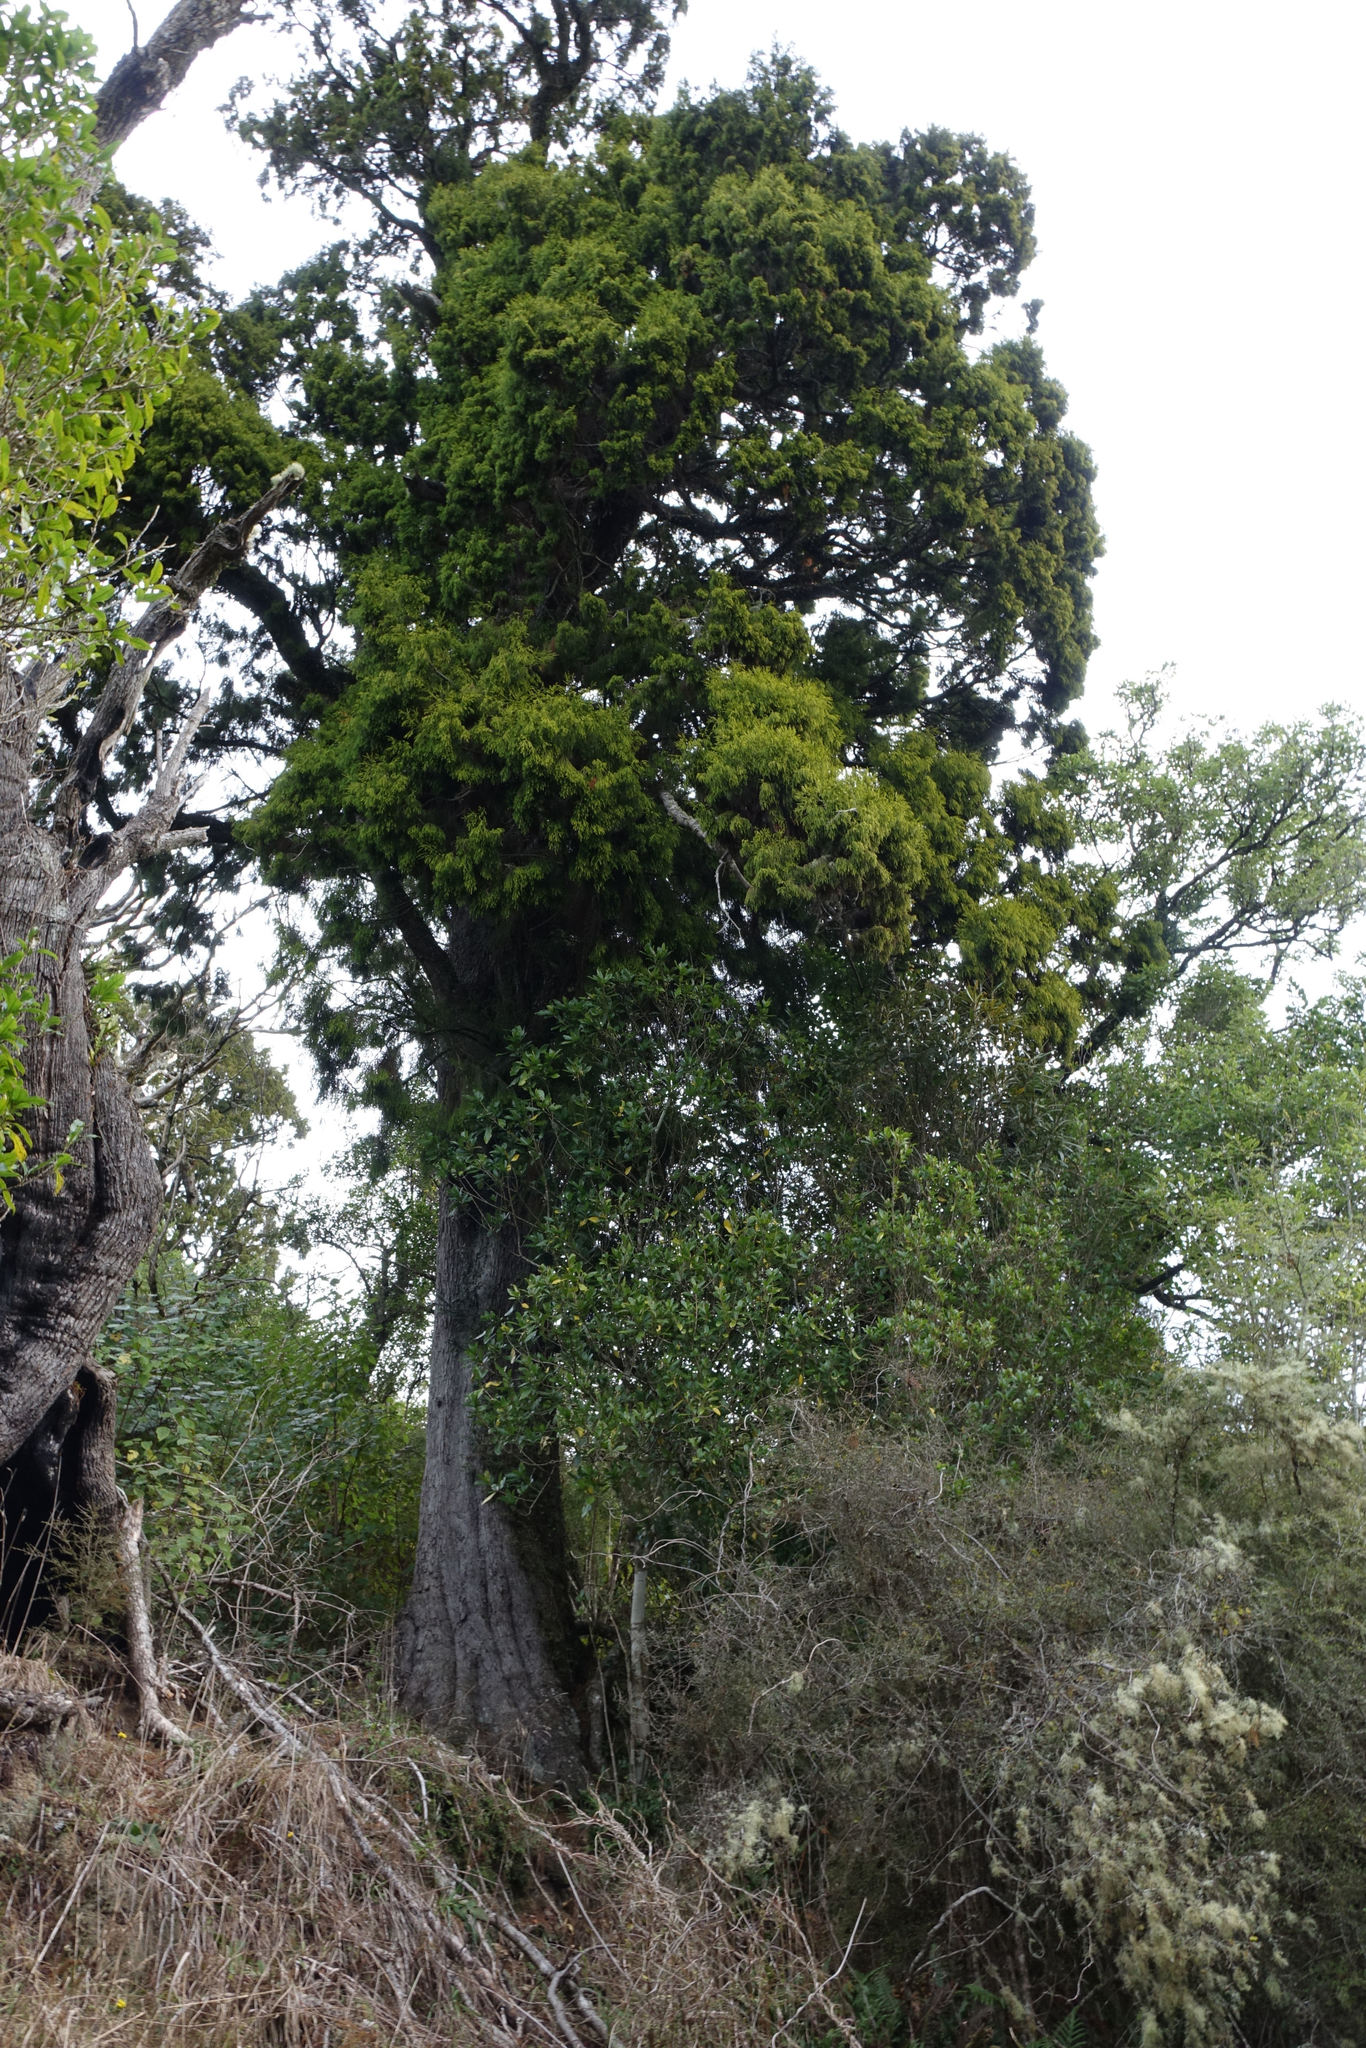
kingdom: Plantae
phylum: Tracheophyta
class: Pinopsida
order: Pinales
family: Podocarpaceae
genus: Dacrydium
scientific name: Dacrydium cupressinum
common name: Red pine
